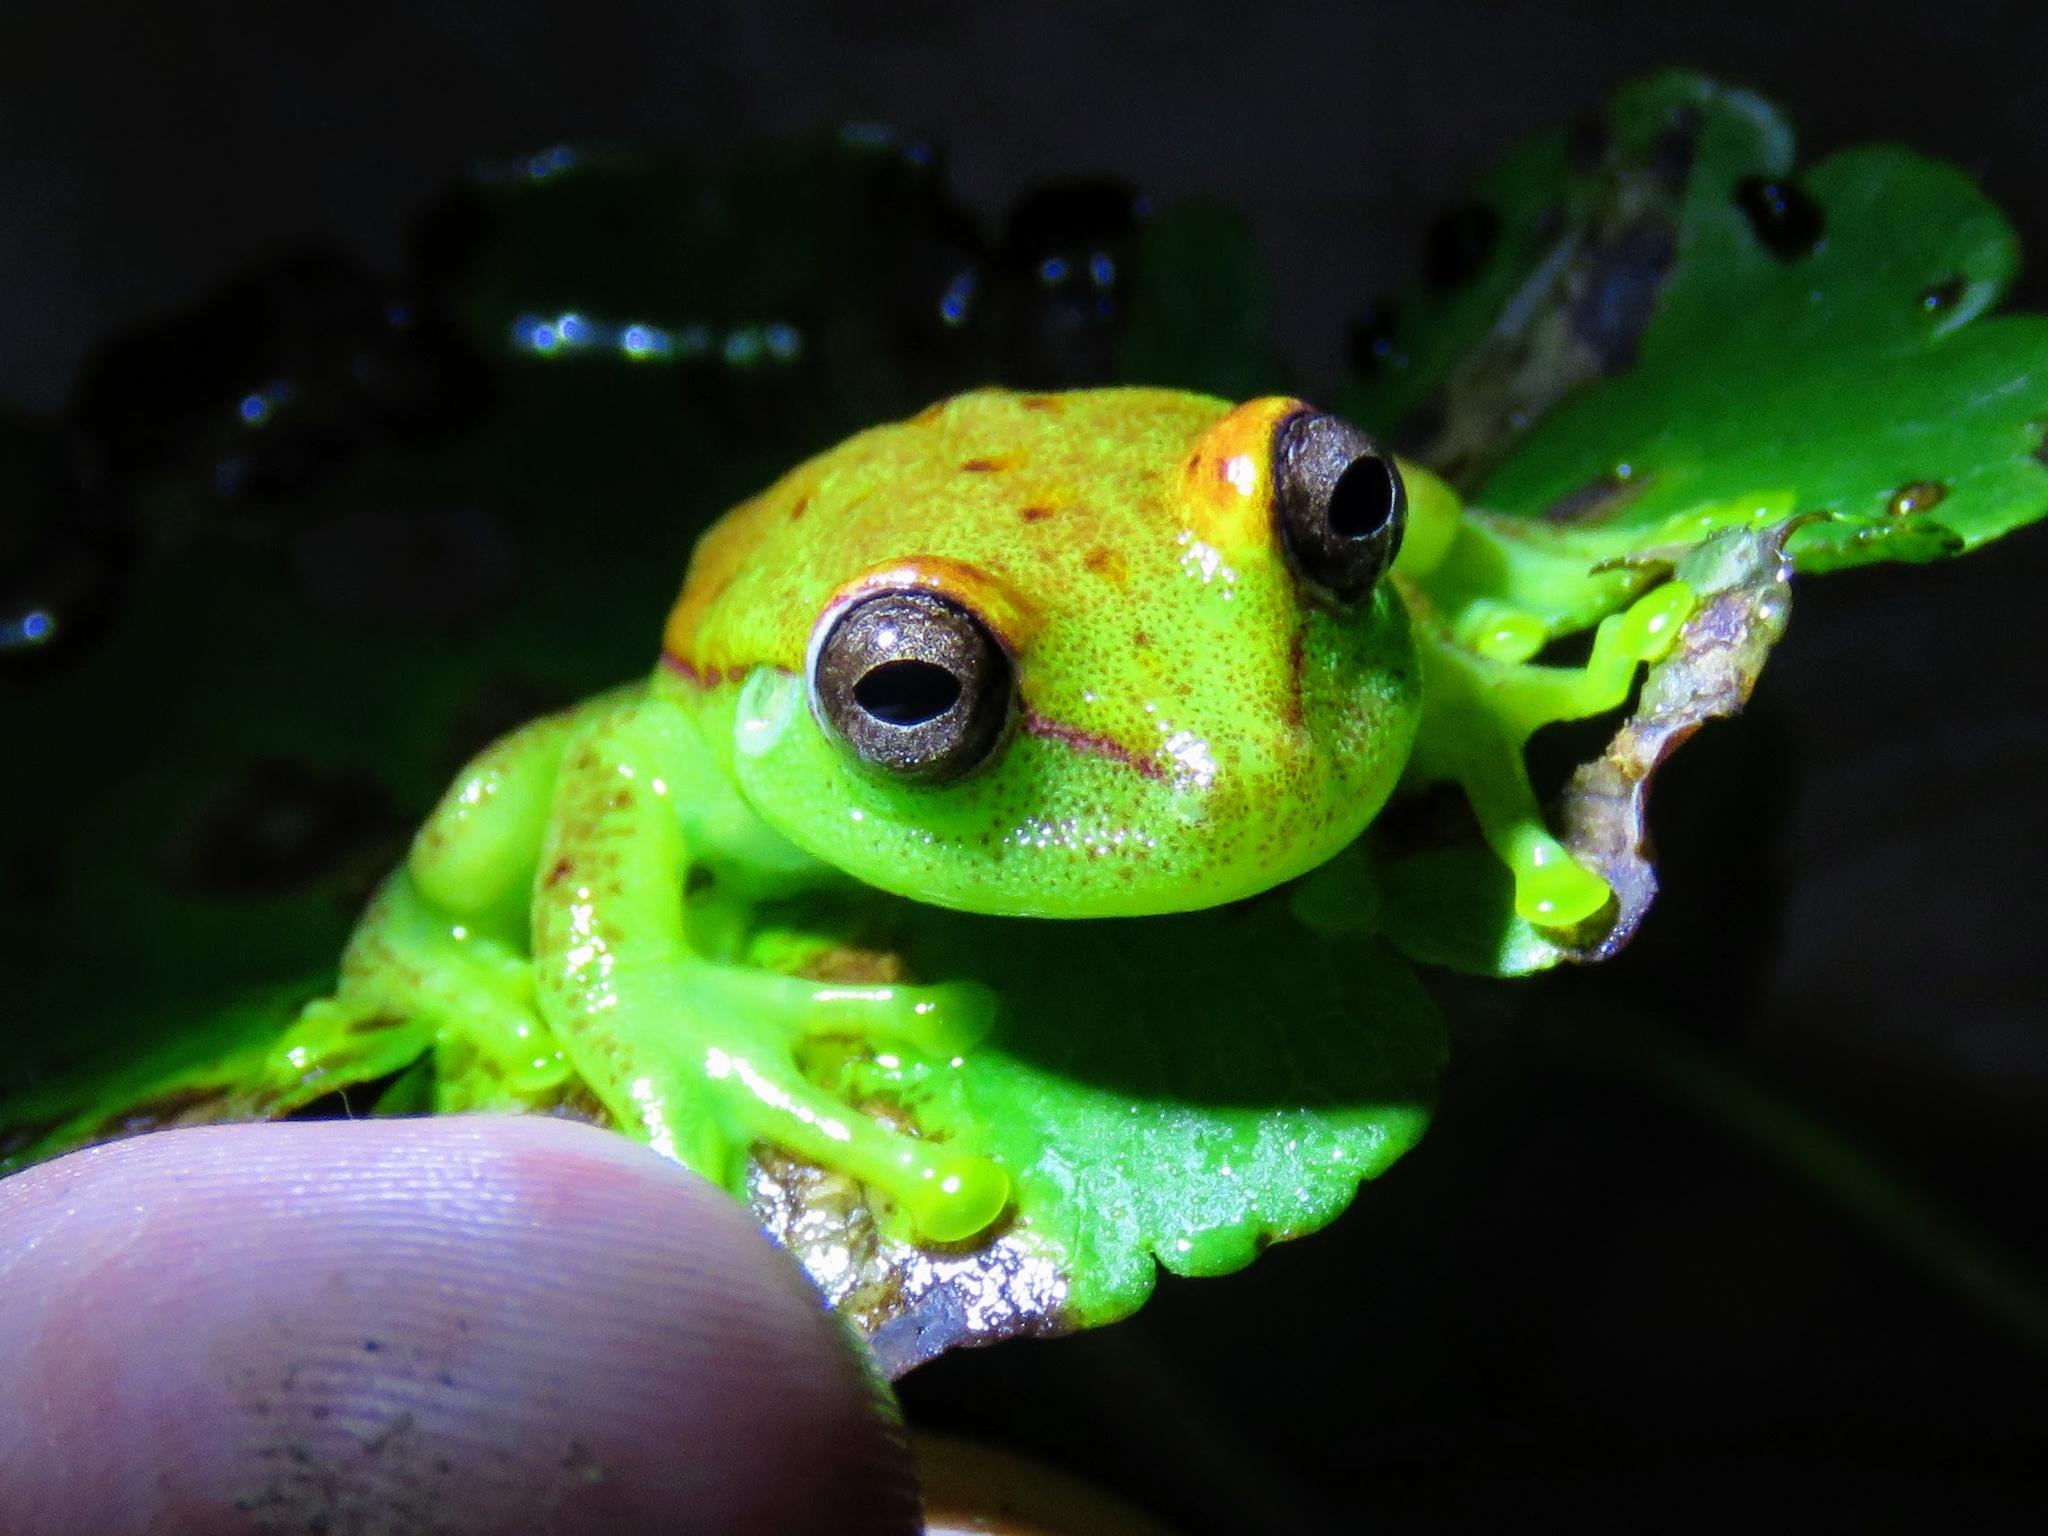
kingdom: Animalia
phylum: Chordata
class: Amphibia
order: Anura
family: Hylidae
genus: Boana
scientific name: Boana punctata
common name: Polka-dot treefrog
